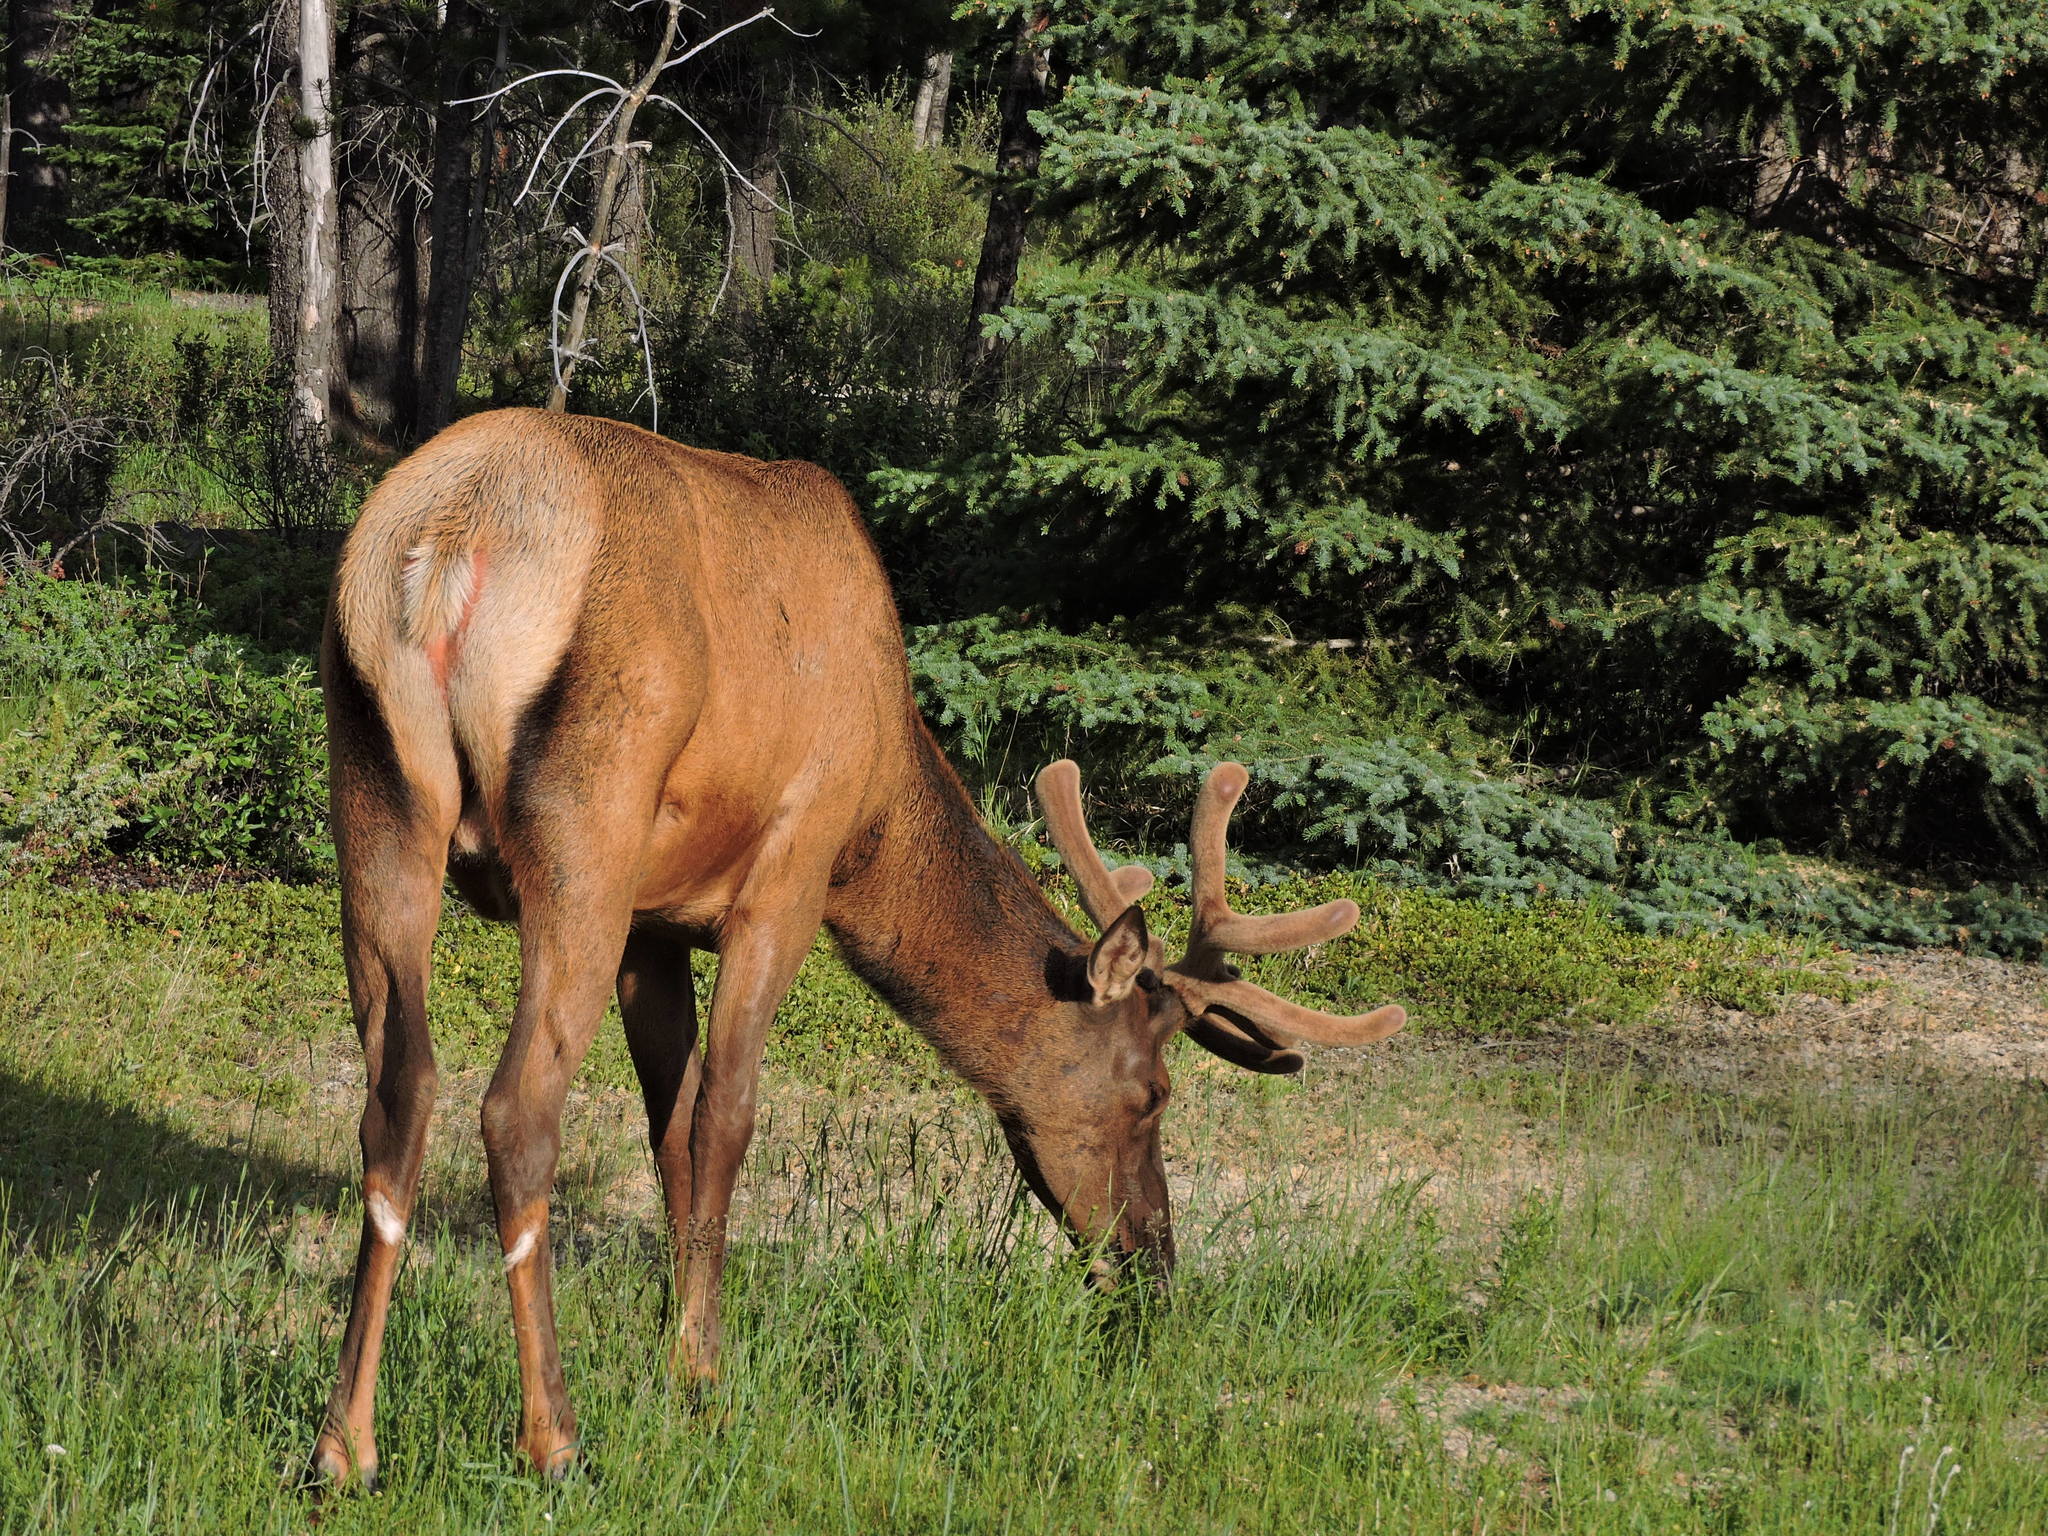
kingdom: Animalia
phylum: Chordata
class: Mammalia
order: Artiodactyla
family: Cervidae
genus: Cervus
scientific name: Cervus elaphus
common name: Red deer
